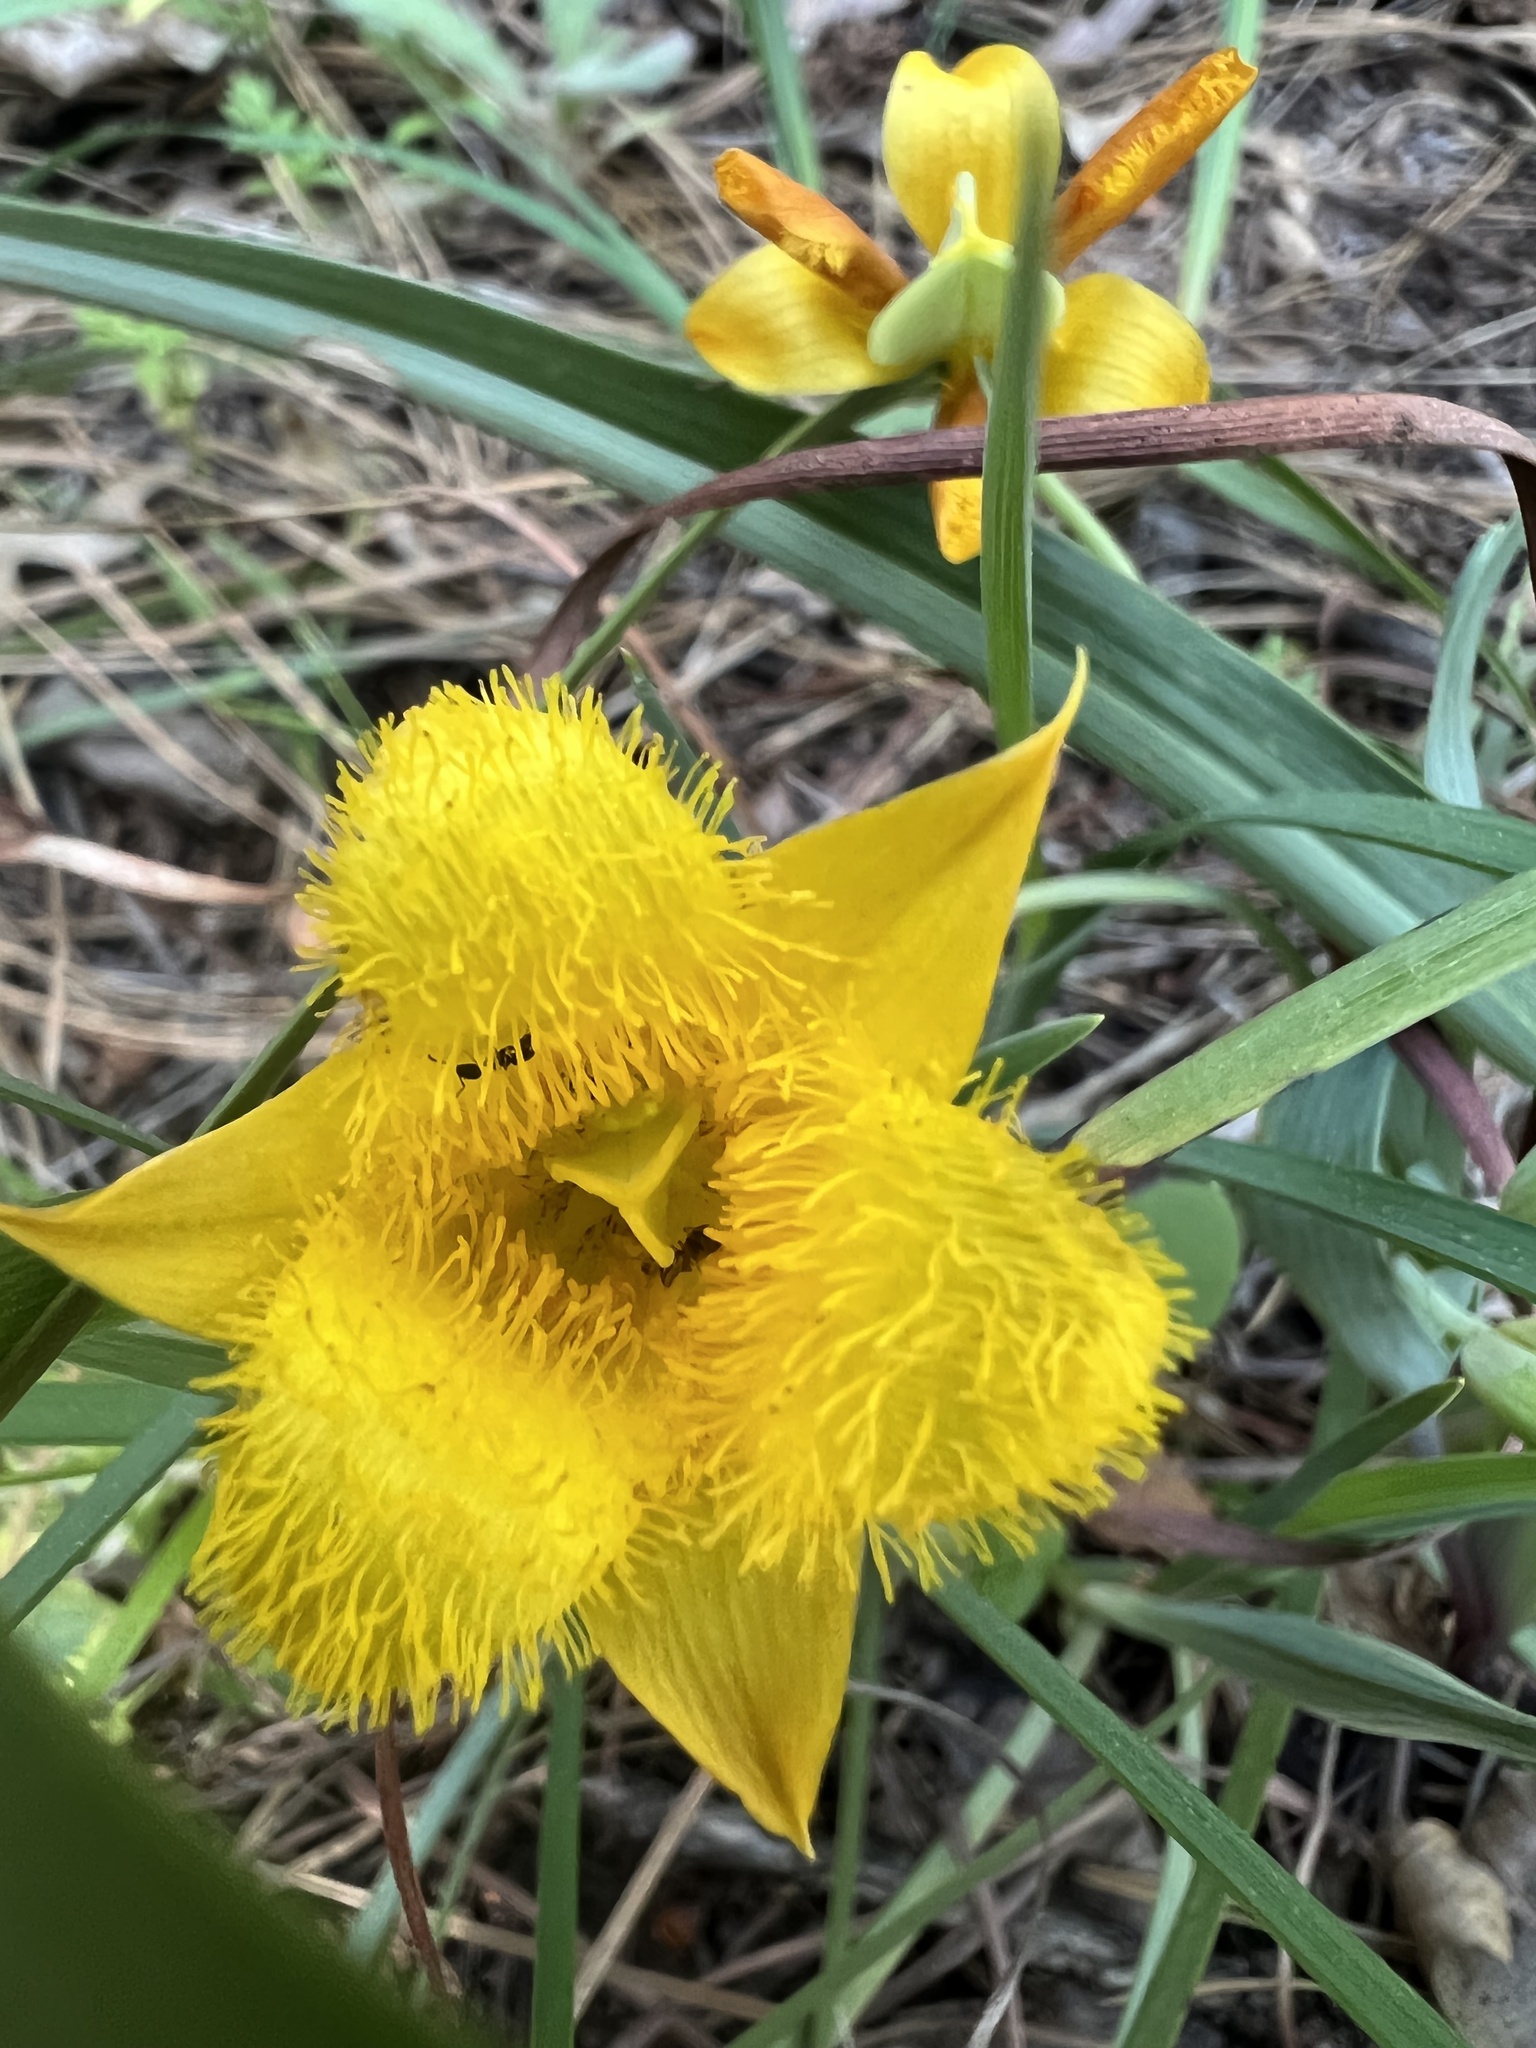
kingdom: Plantae
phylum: Tracheophyta
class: Liliopsida
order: Liliales
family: Liliaceae
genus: Calochortus
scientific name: Calochortus monophyllus
